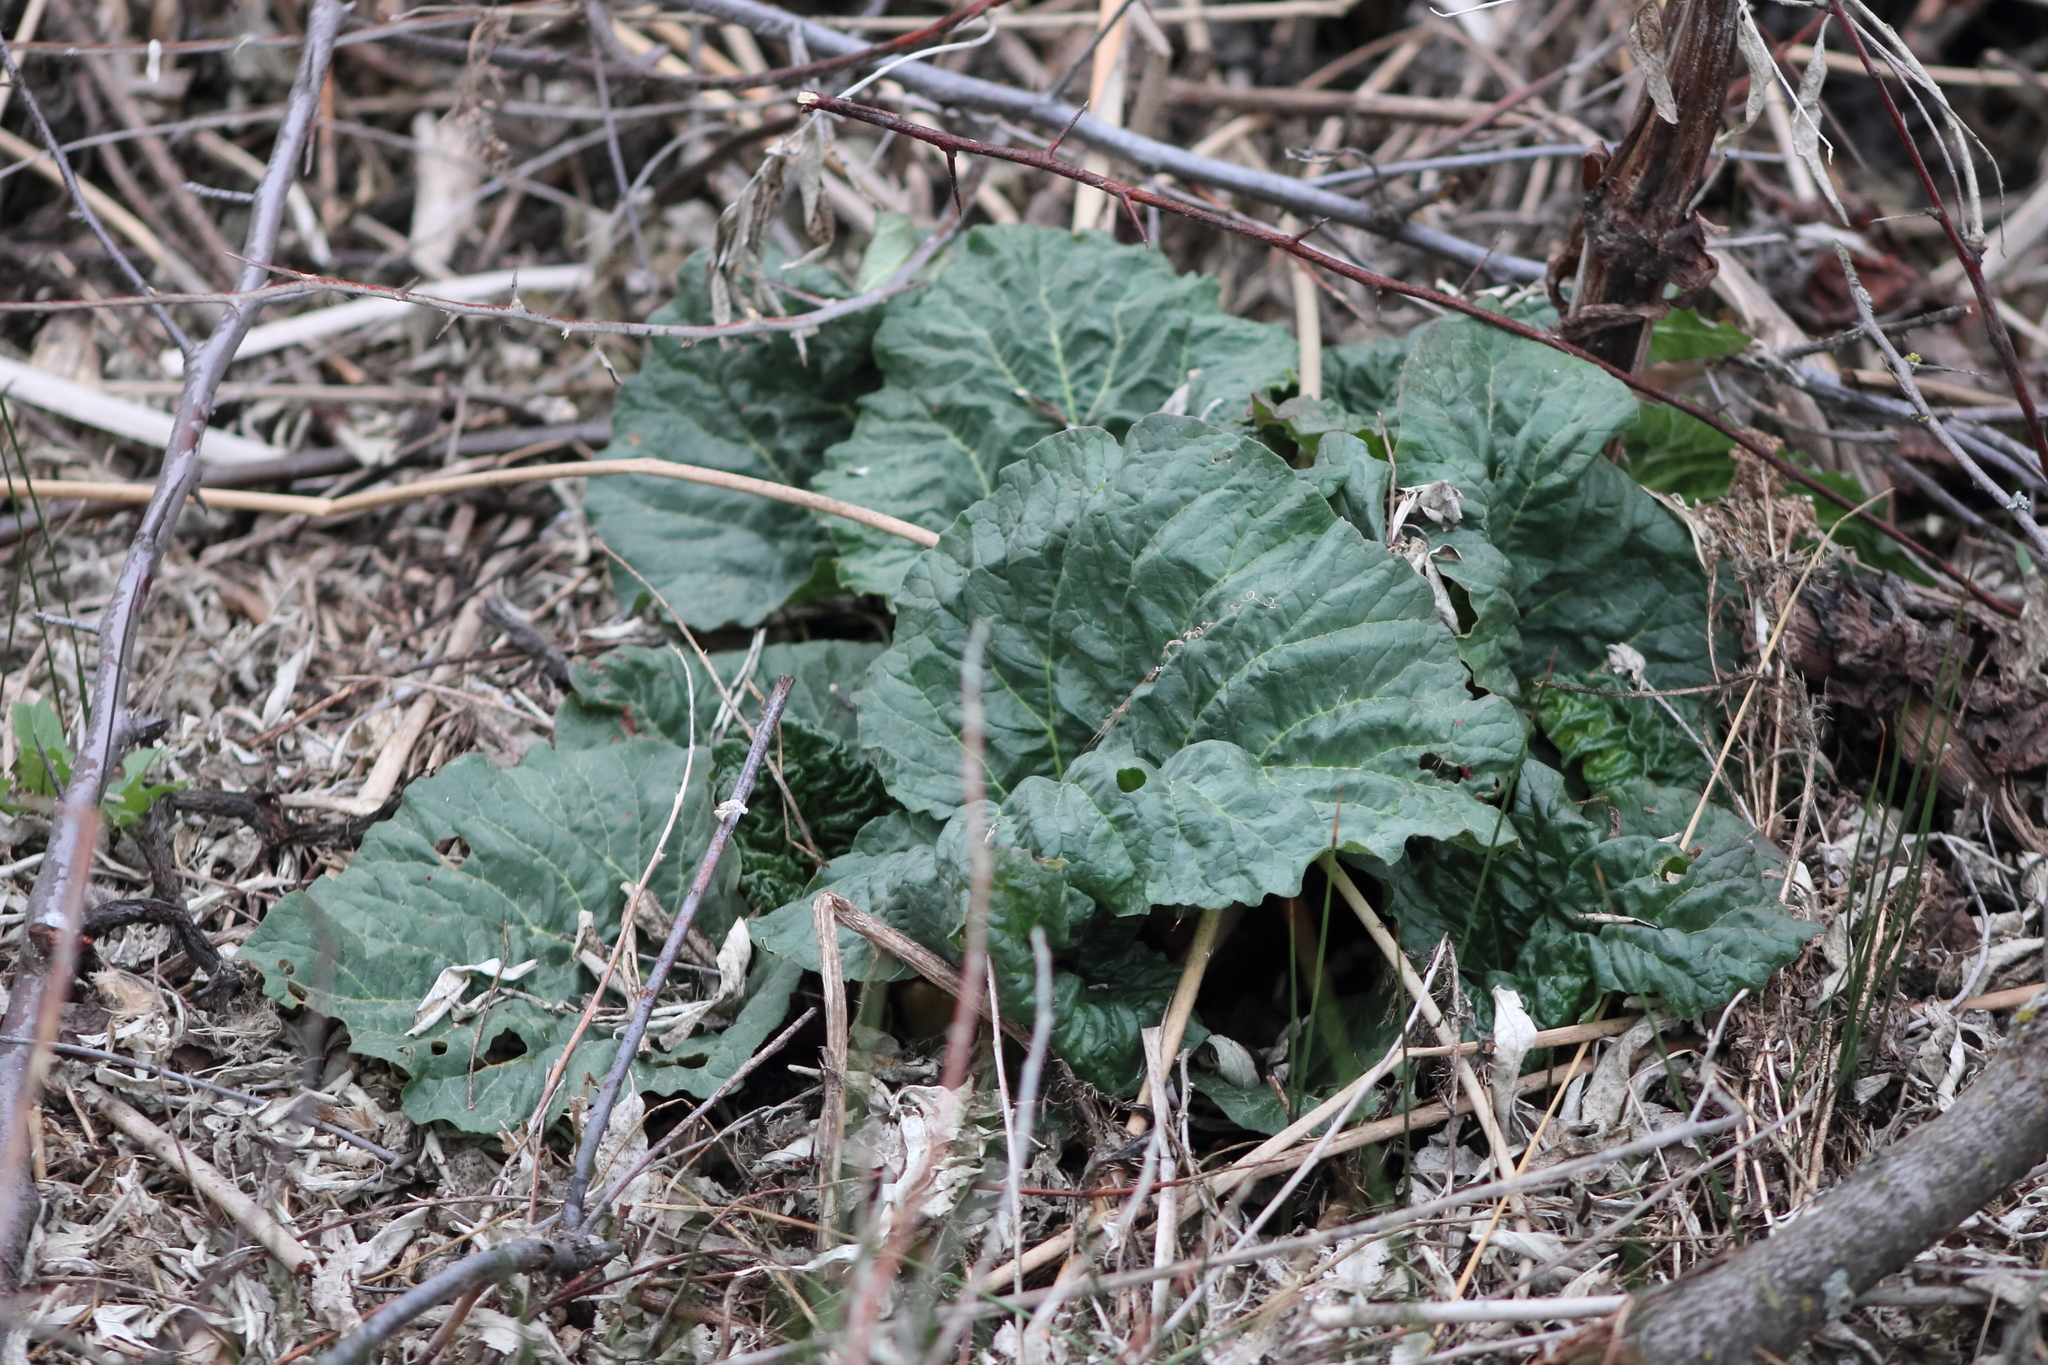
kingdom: Plantae
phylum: Tracheophyta
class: Magnoliopsida
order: Caryophyllales
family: Polygonaceae
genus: Rheum
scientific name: Rheum rhabarbarum
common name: Garden rhubarb
